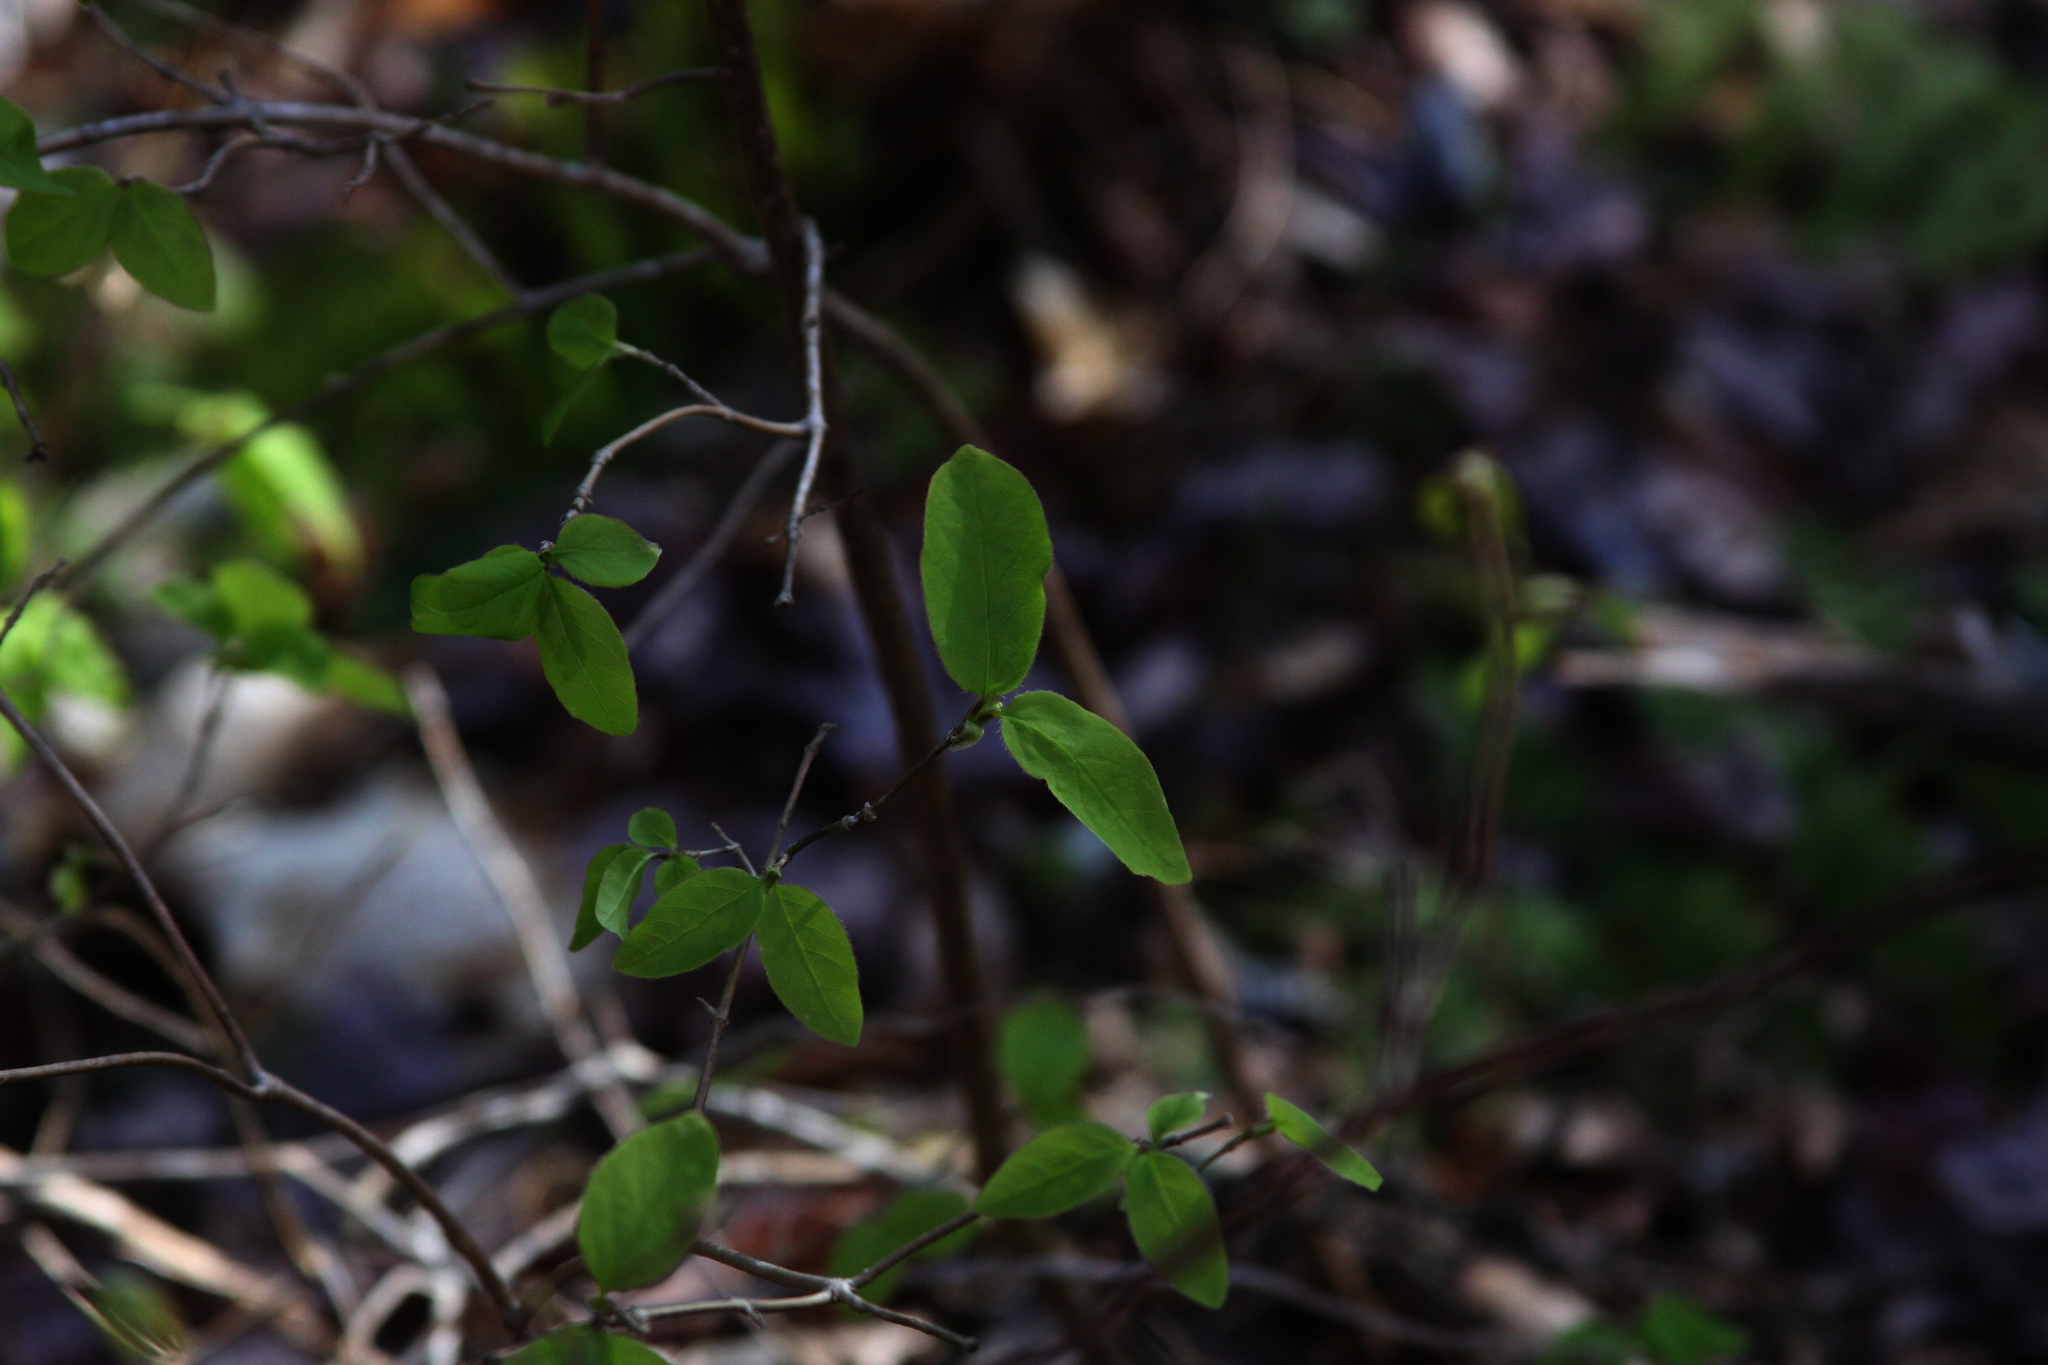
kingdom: Plantae
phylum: Tracheophyta
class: Magnoliopsida
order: Dipsacales
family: Caprifoliaceae
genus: Lonicera
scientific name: Lonicera canadensis
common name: American fly-honeysuckle
